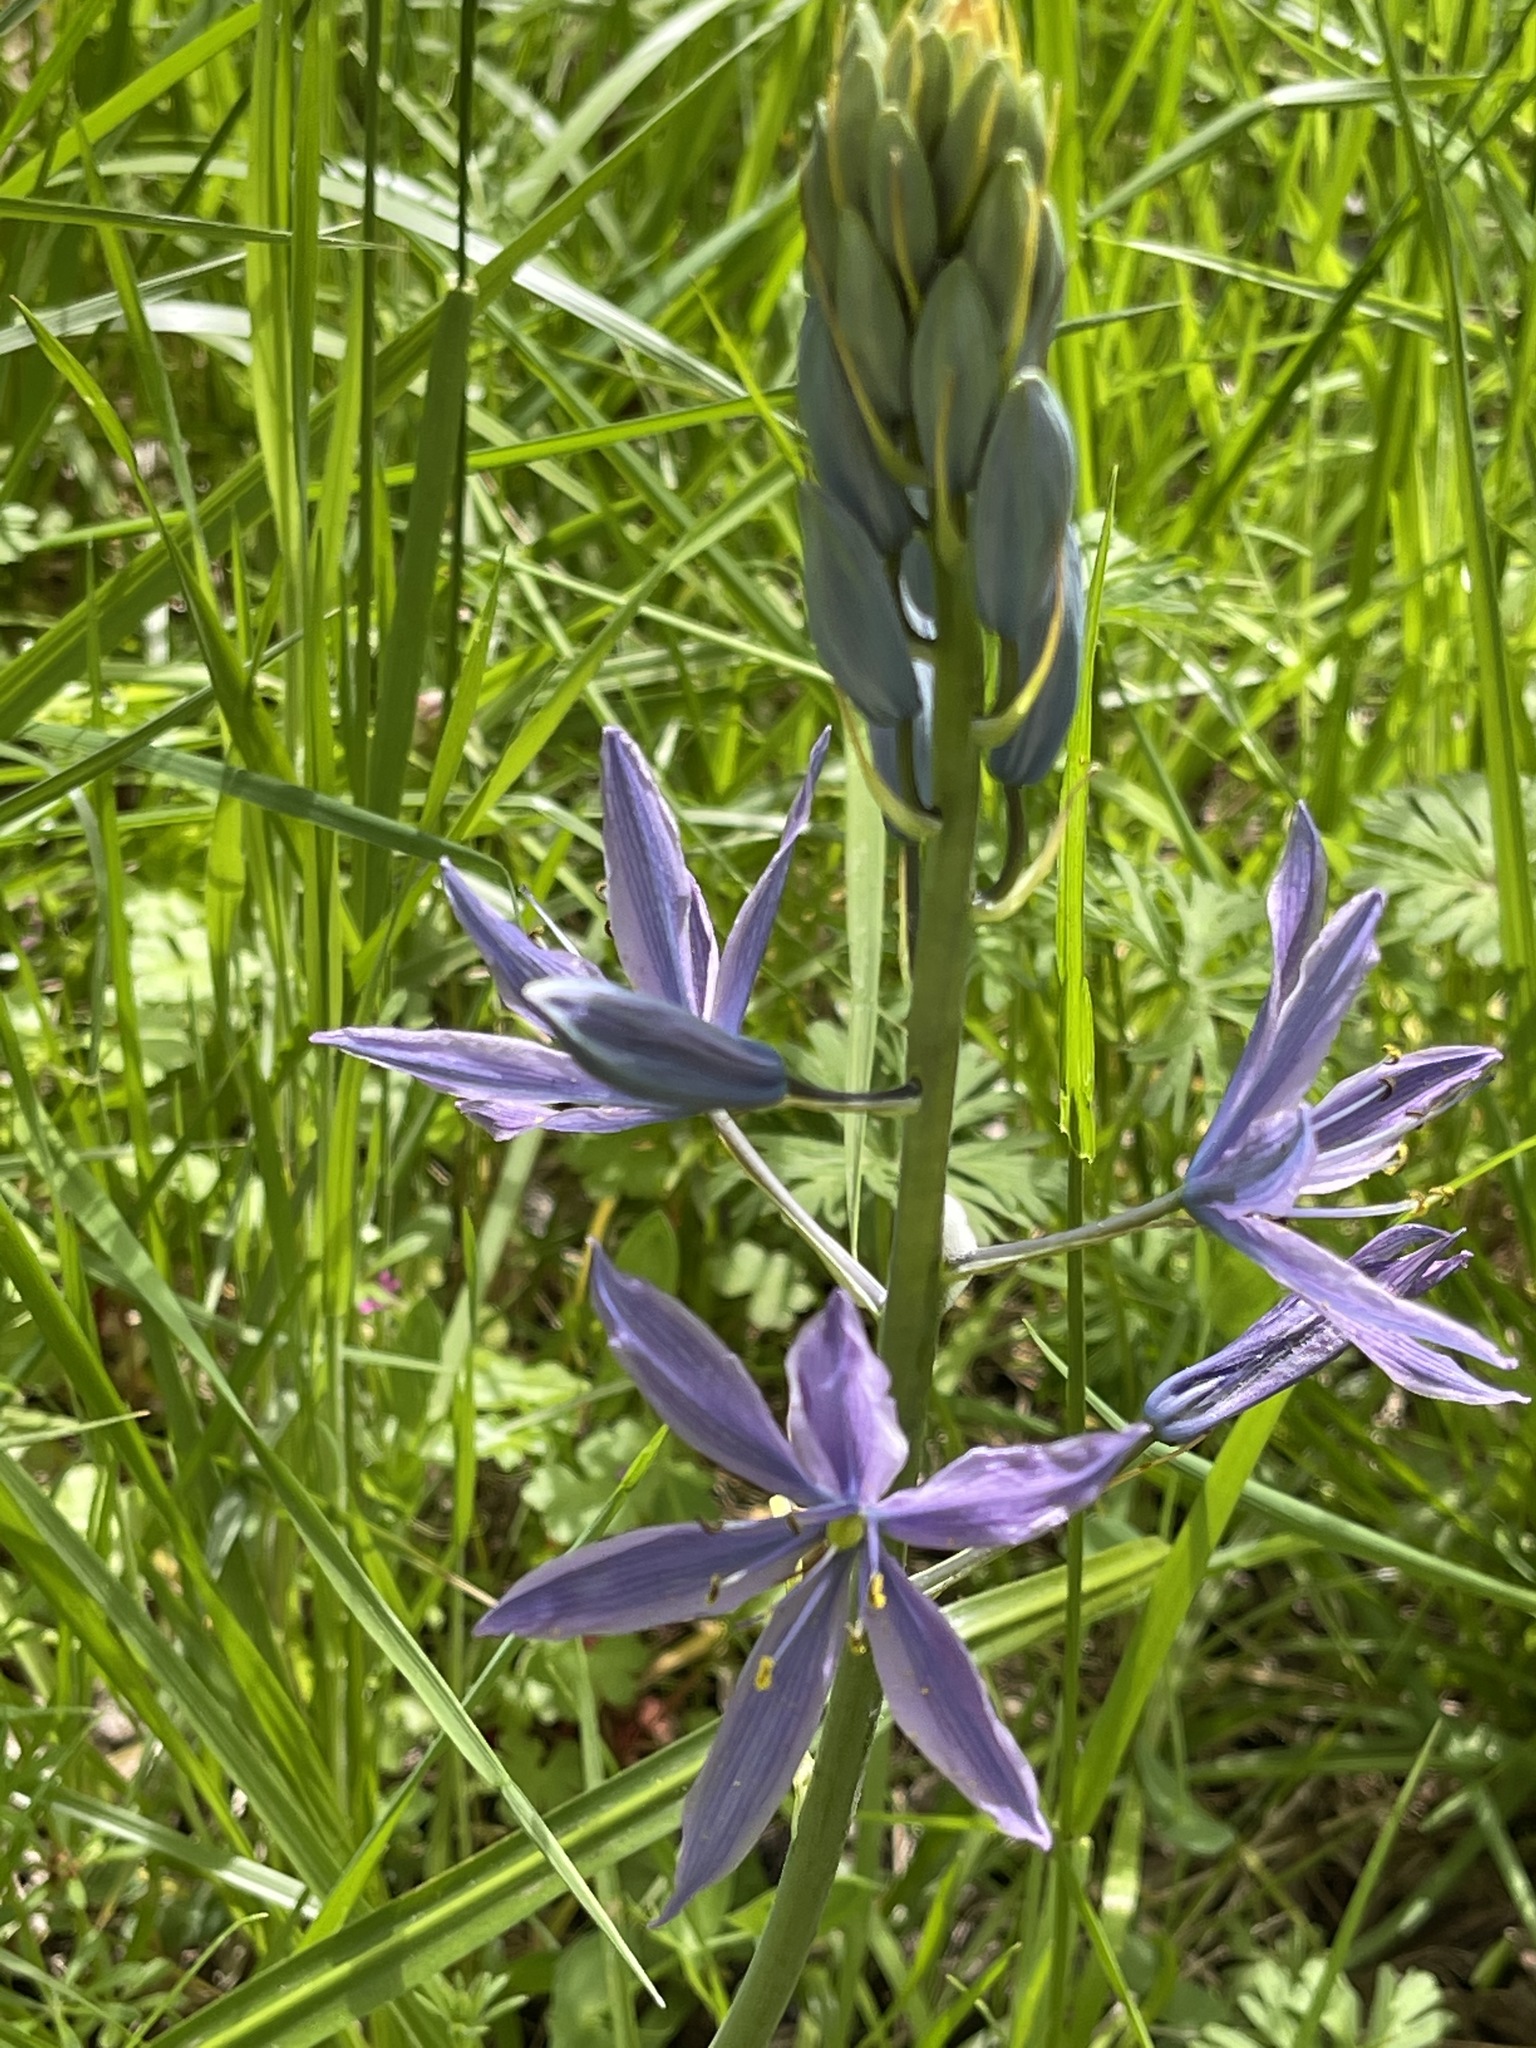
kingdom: Plantae
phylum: Tracheophyta
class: Liliopsida
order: Asparagales
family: Asparagaceae
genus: Camassia
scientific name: Camassia leichtlinii
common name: Leichtlin's camas
